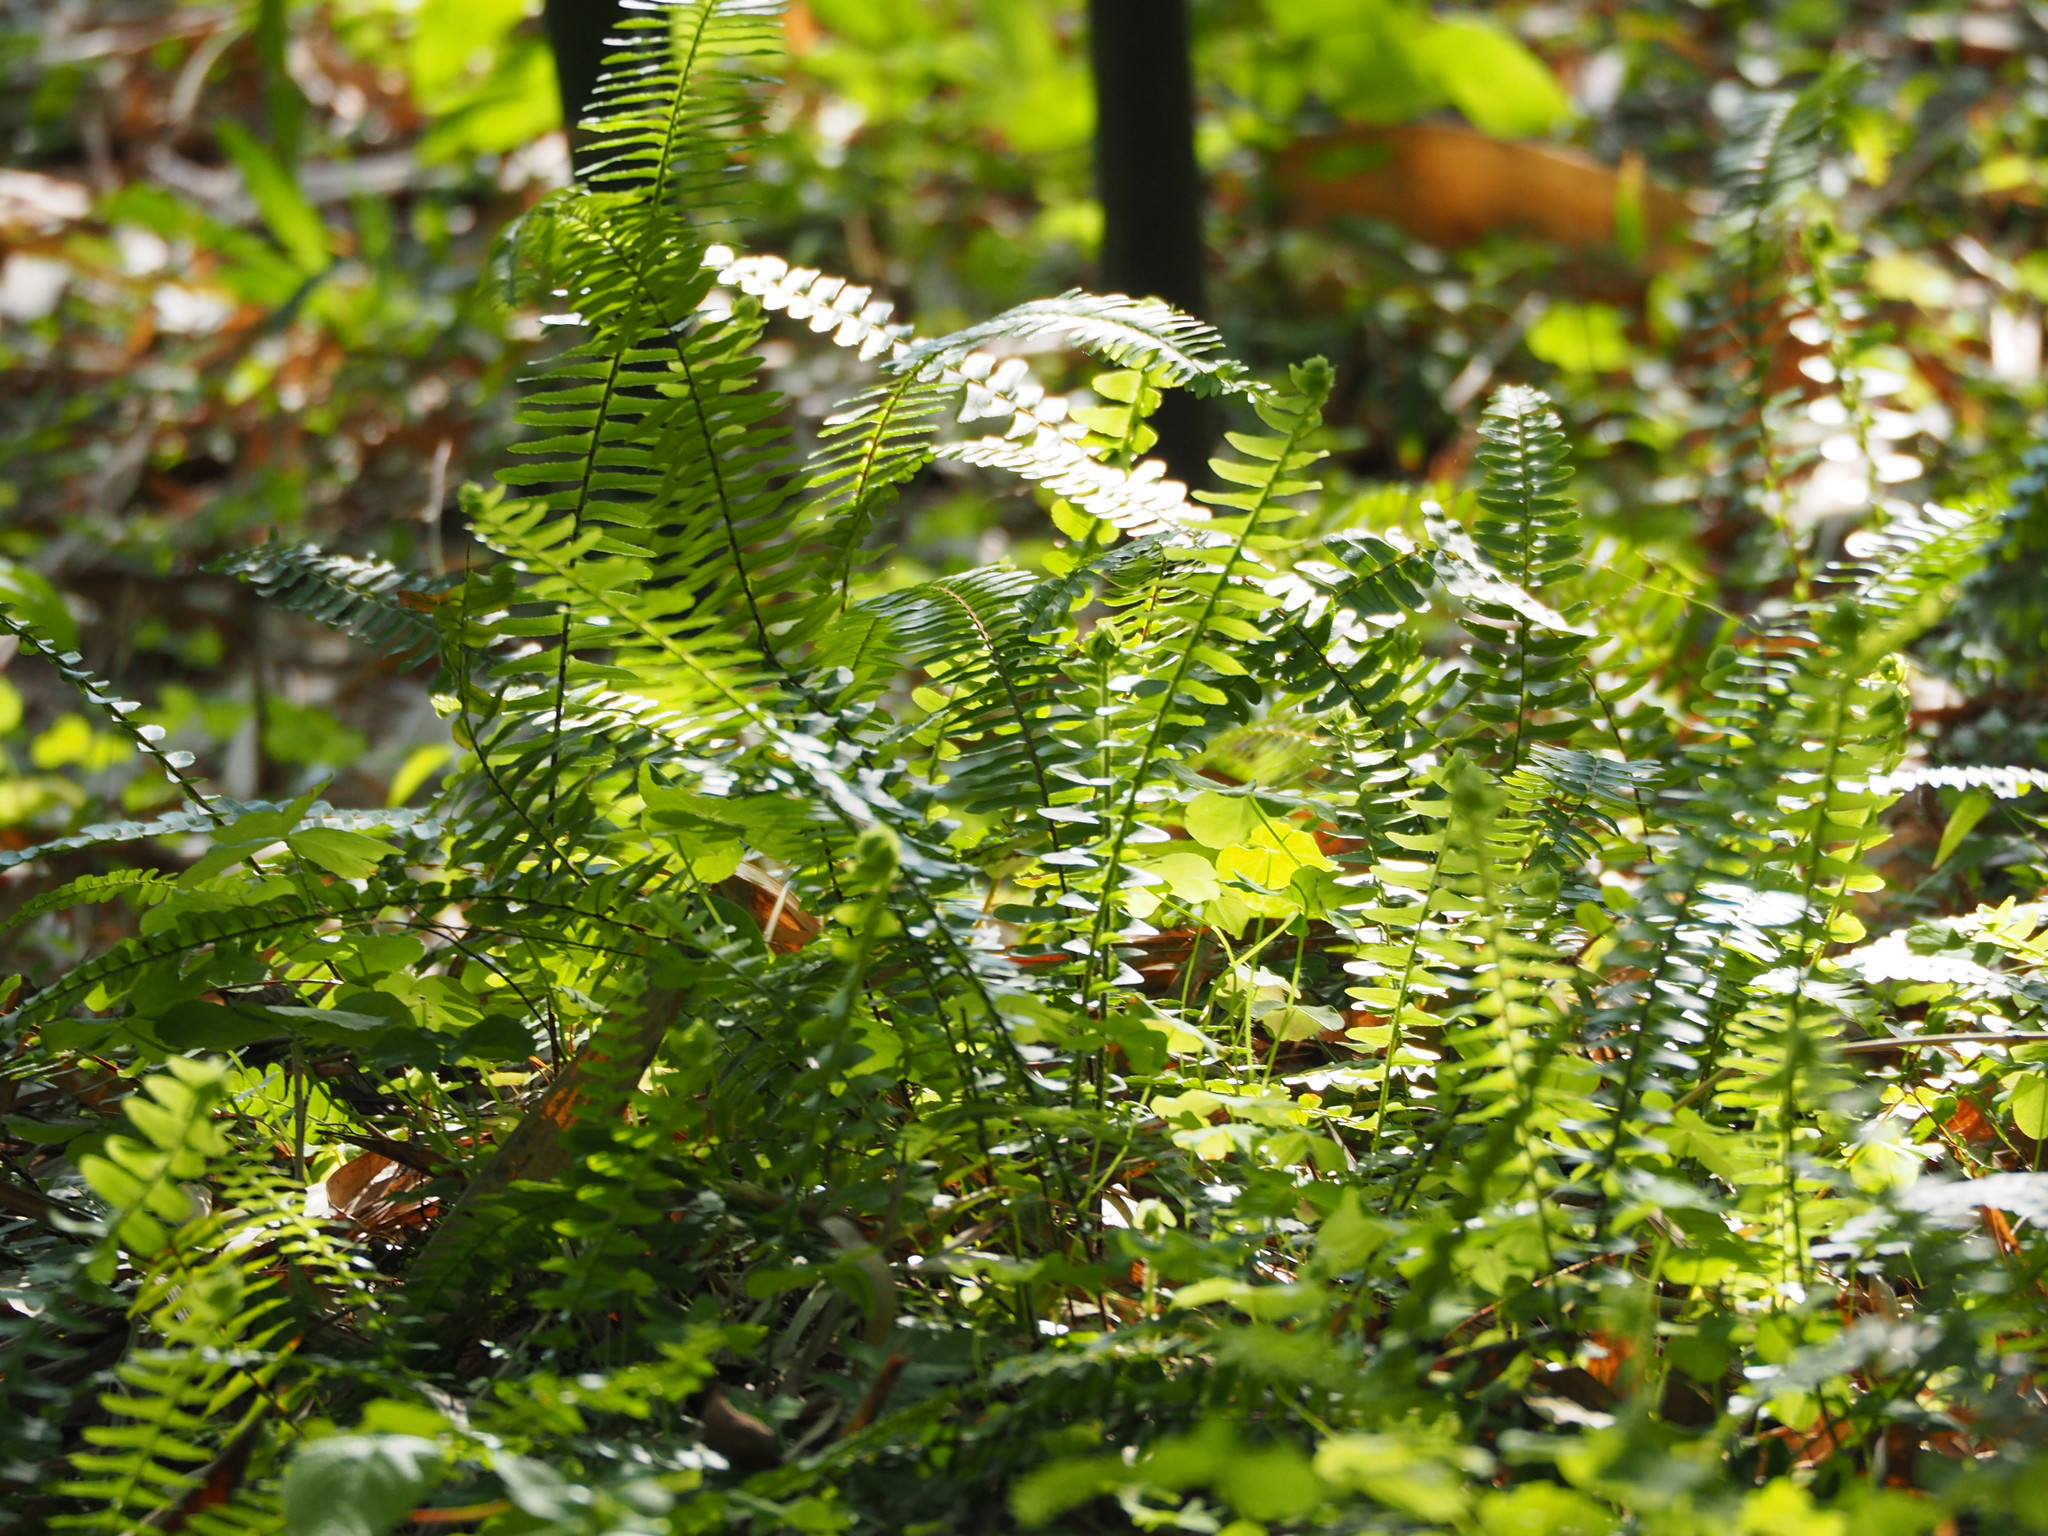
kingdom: Plantae
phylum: Tracheophyta
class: Polypodiopsida
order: Polypodiales
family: Nephrolepidaceae
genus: Nephrolepis
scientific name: Nephrolepis cordifolia
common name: Narrow swordfern
